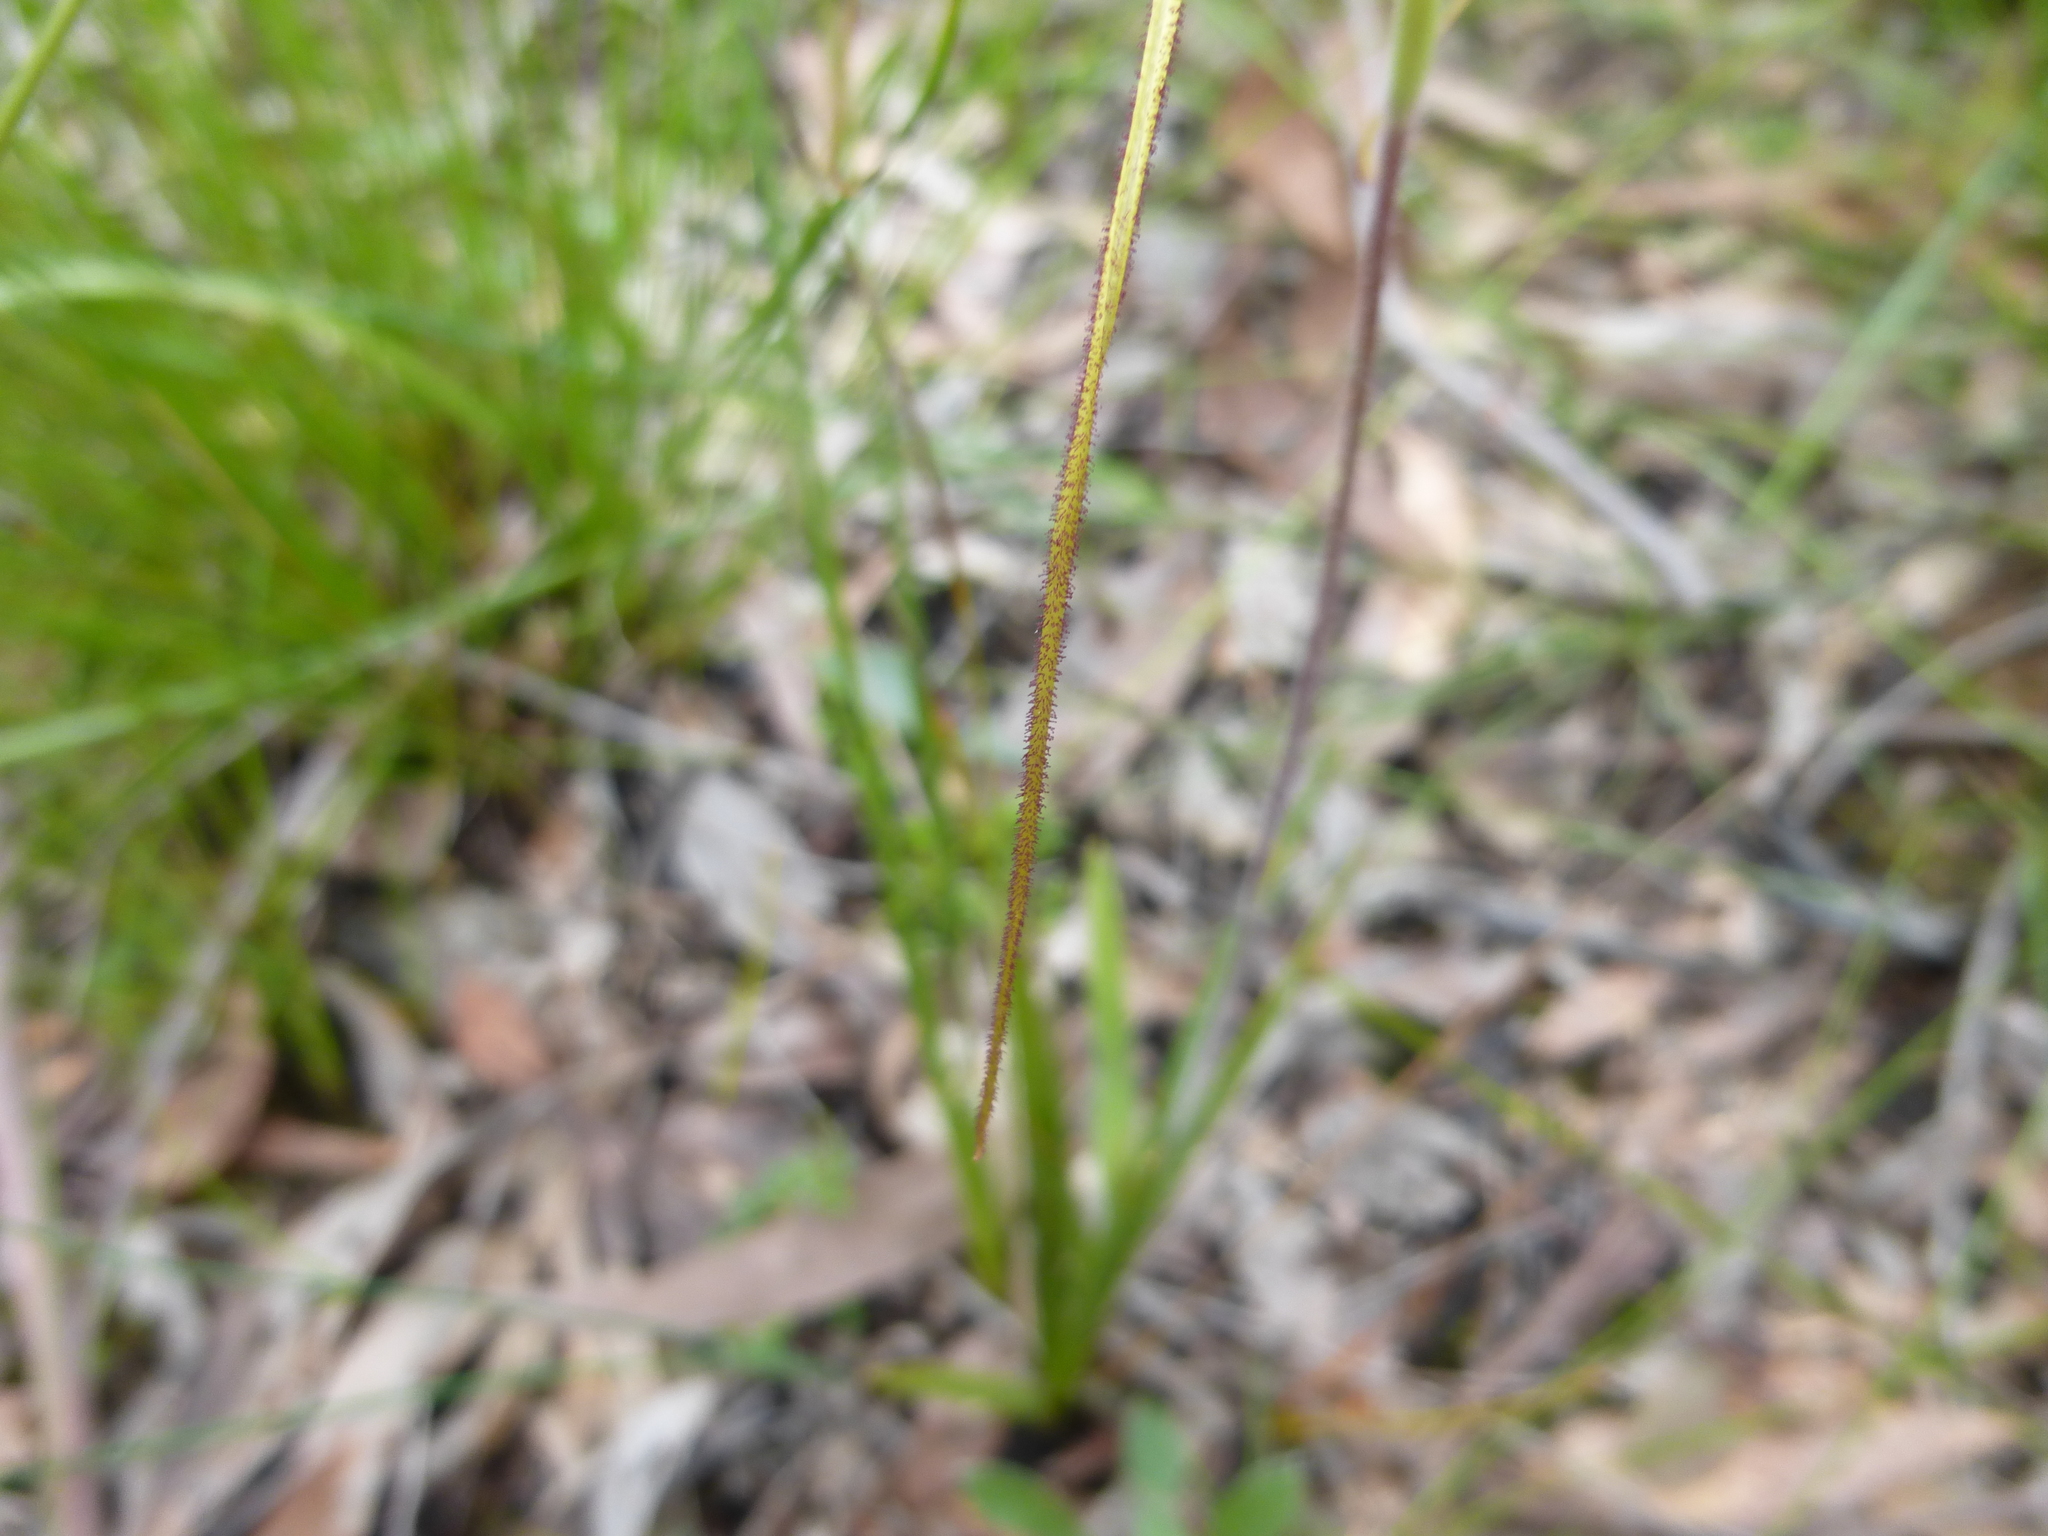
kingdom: Plantae
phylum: Tracheophyta
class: Liliopsida
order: Asparagales
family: Orchidaceae
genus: Caladenia
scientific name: Caladenia venusta
